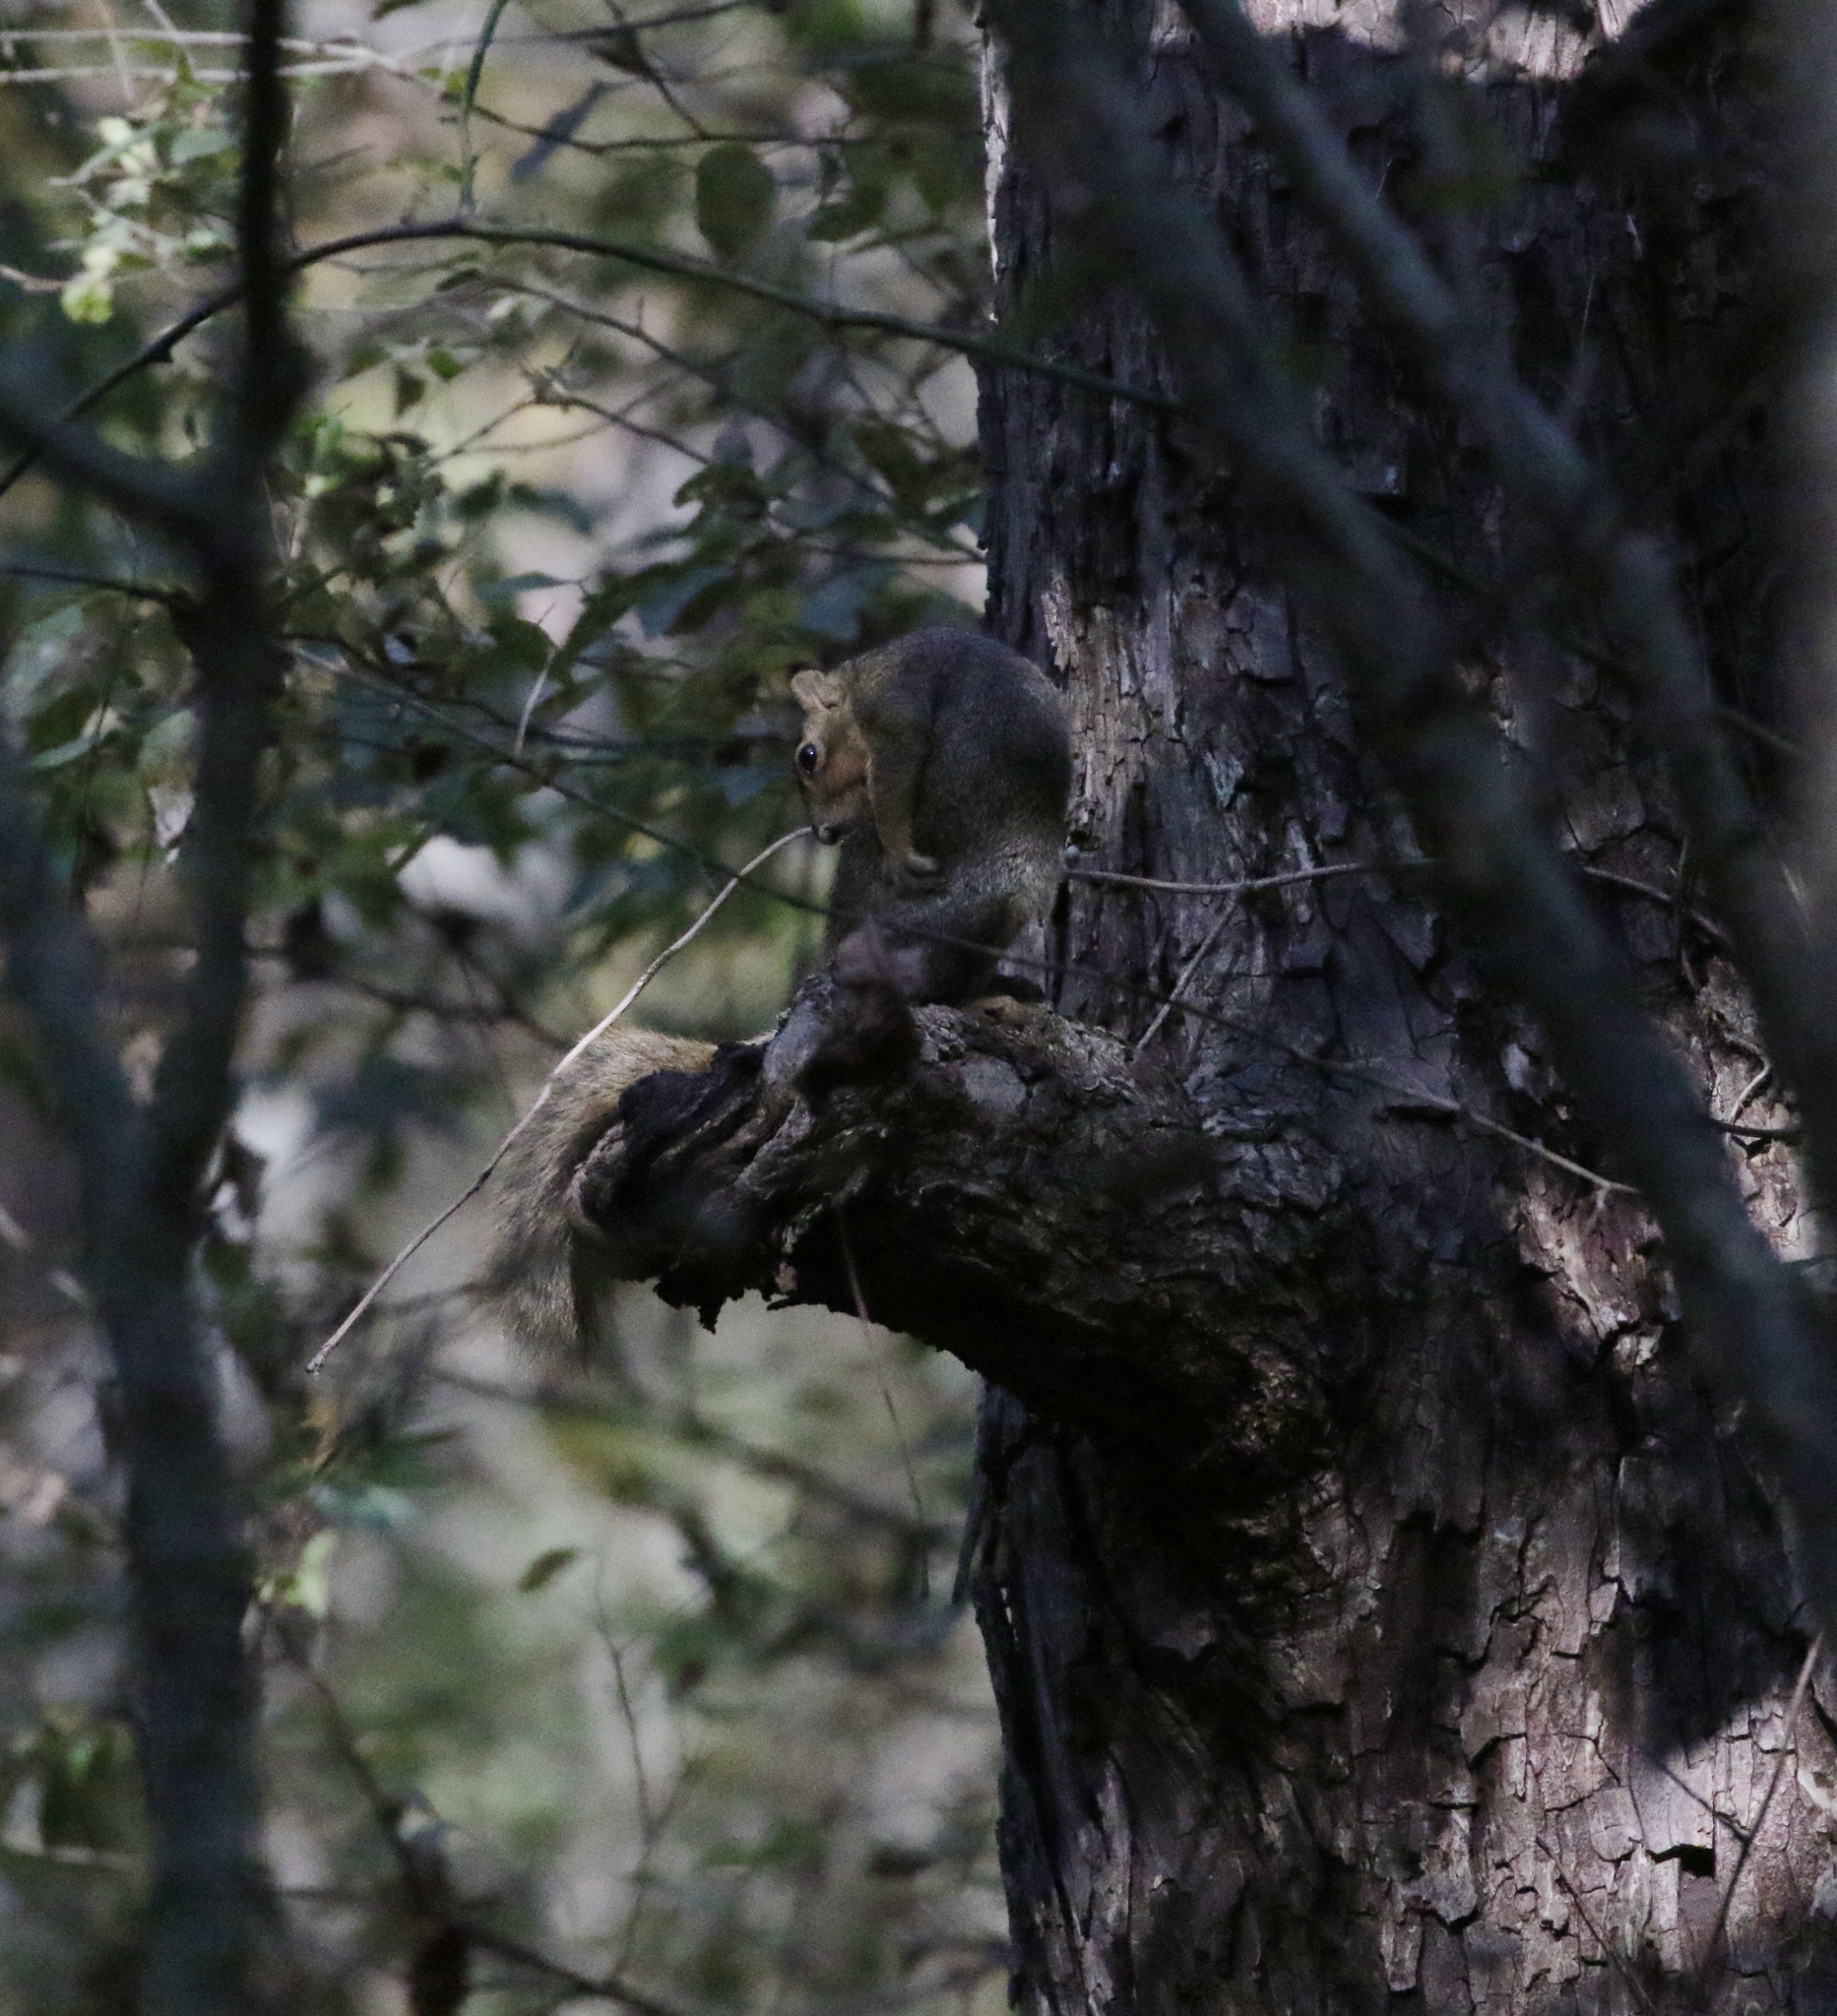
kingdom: Animalia
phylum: Chordata
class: Mammalia
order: Rodentia
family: Sciuridae
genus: Sciurus
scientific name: Sciurus niger
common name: Fox squirrel
